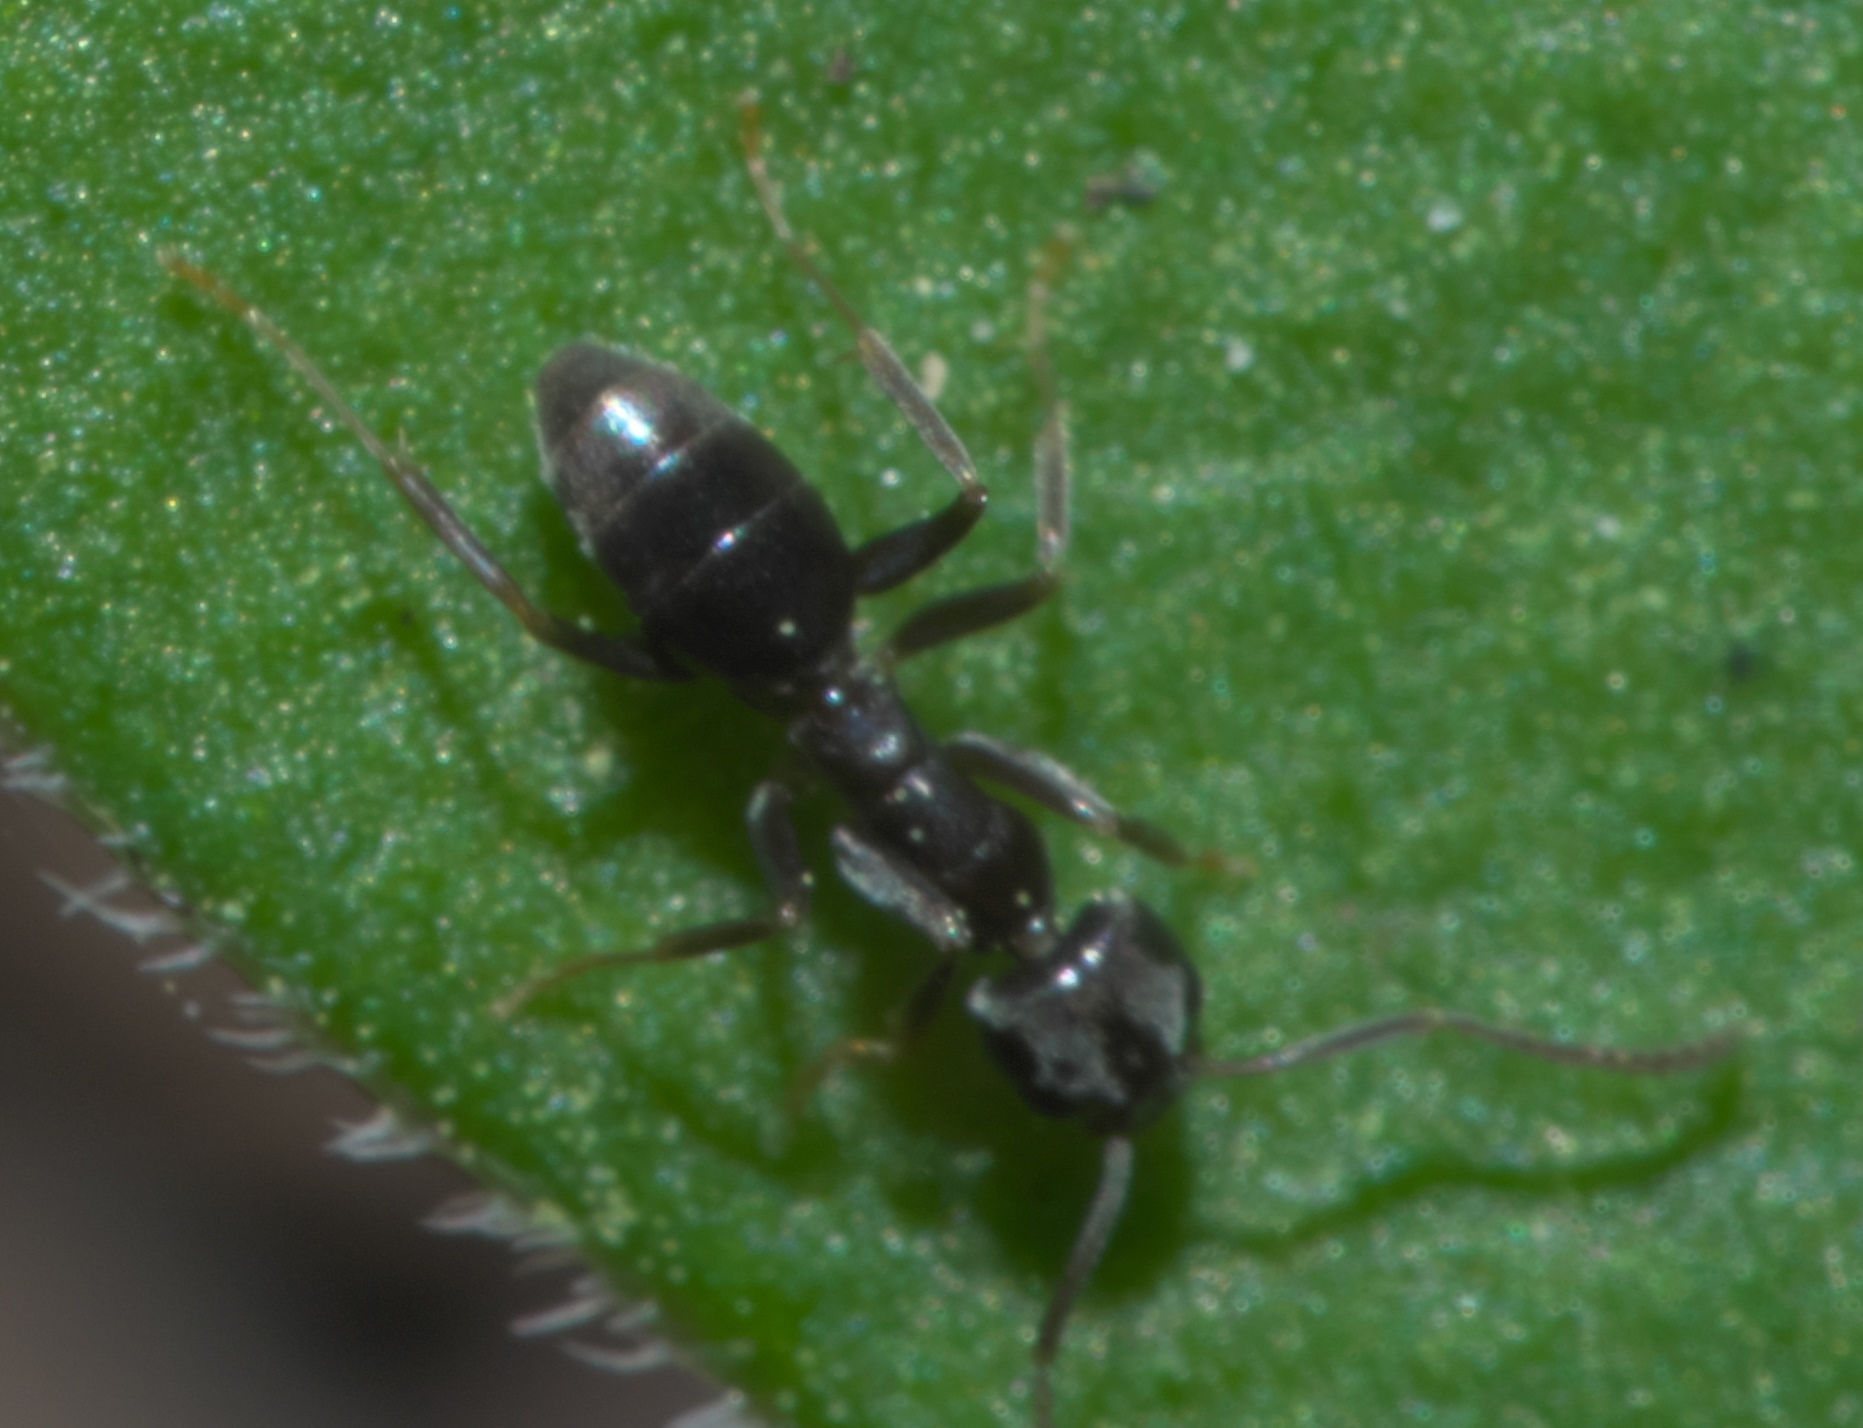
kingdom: Animalia
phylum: Arthropoda
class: Insecta
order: Hymenoptera
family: Formicidae
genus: Tapinoma
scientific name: Tapinoma sessile
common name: Odorous house ant
